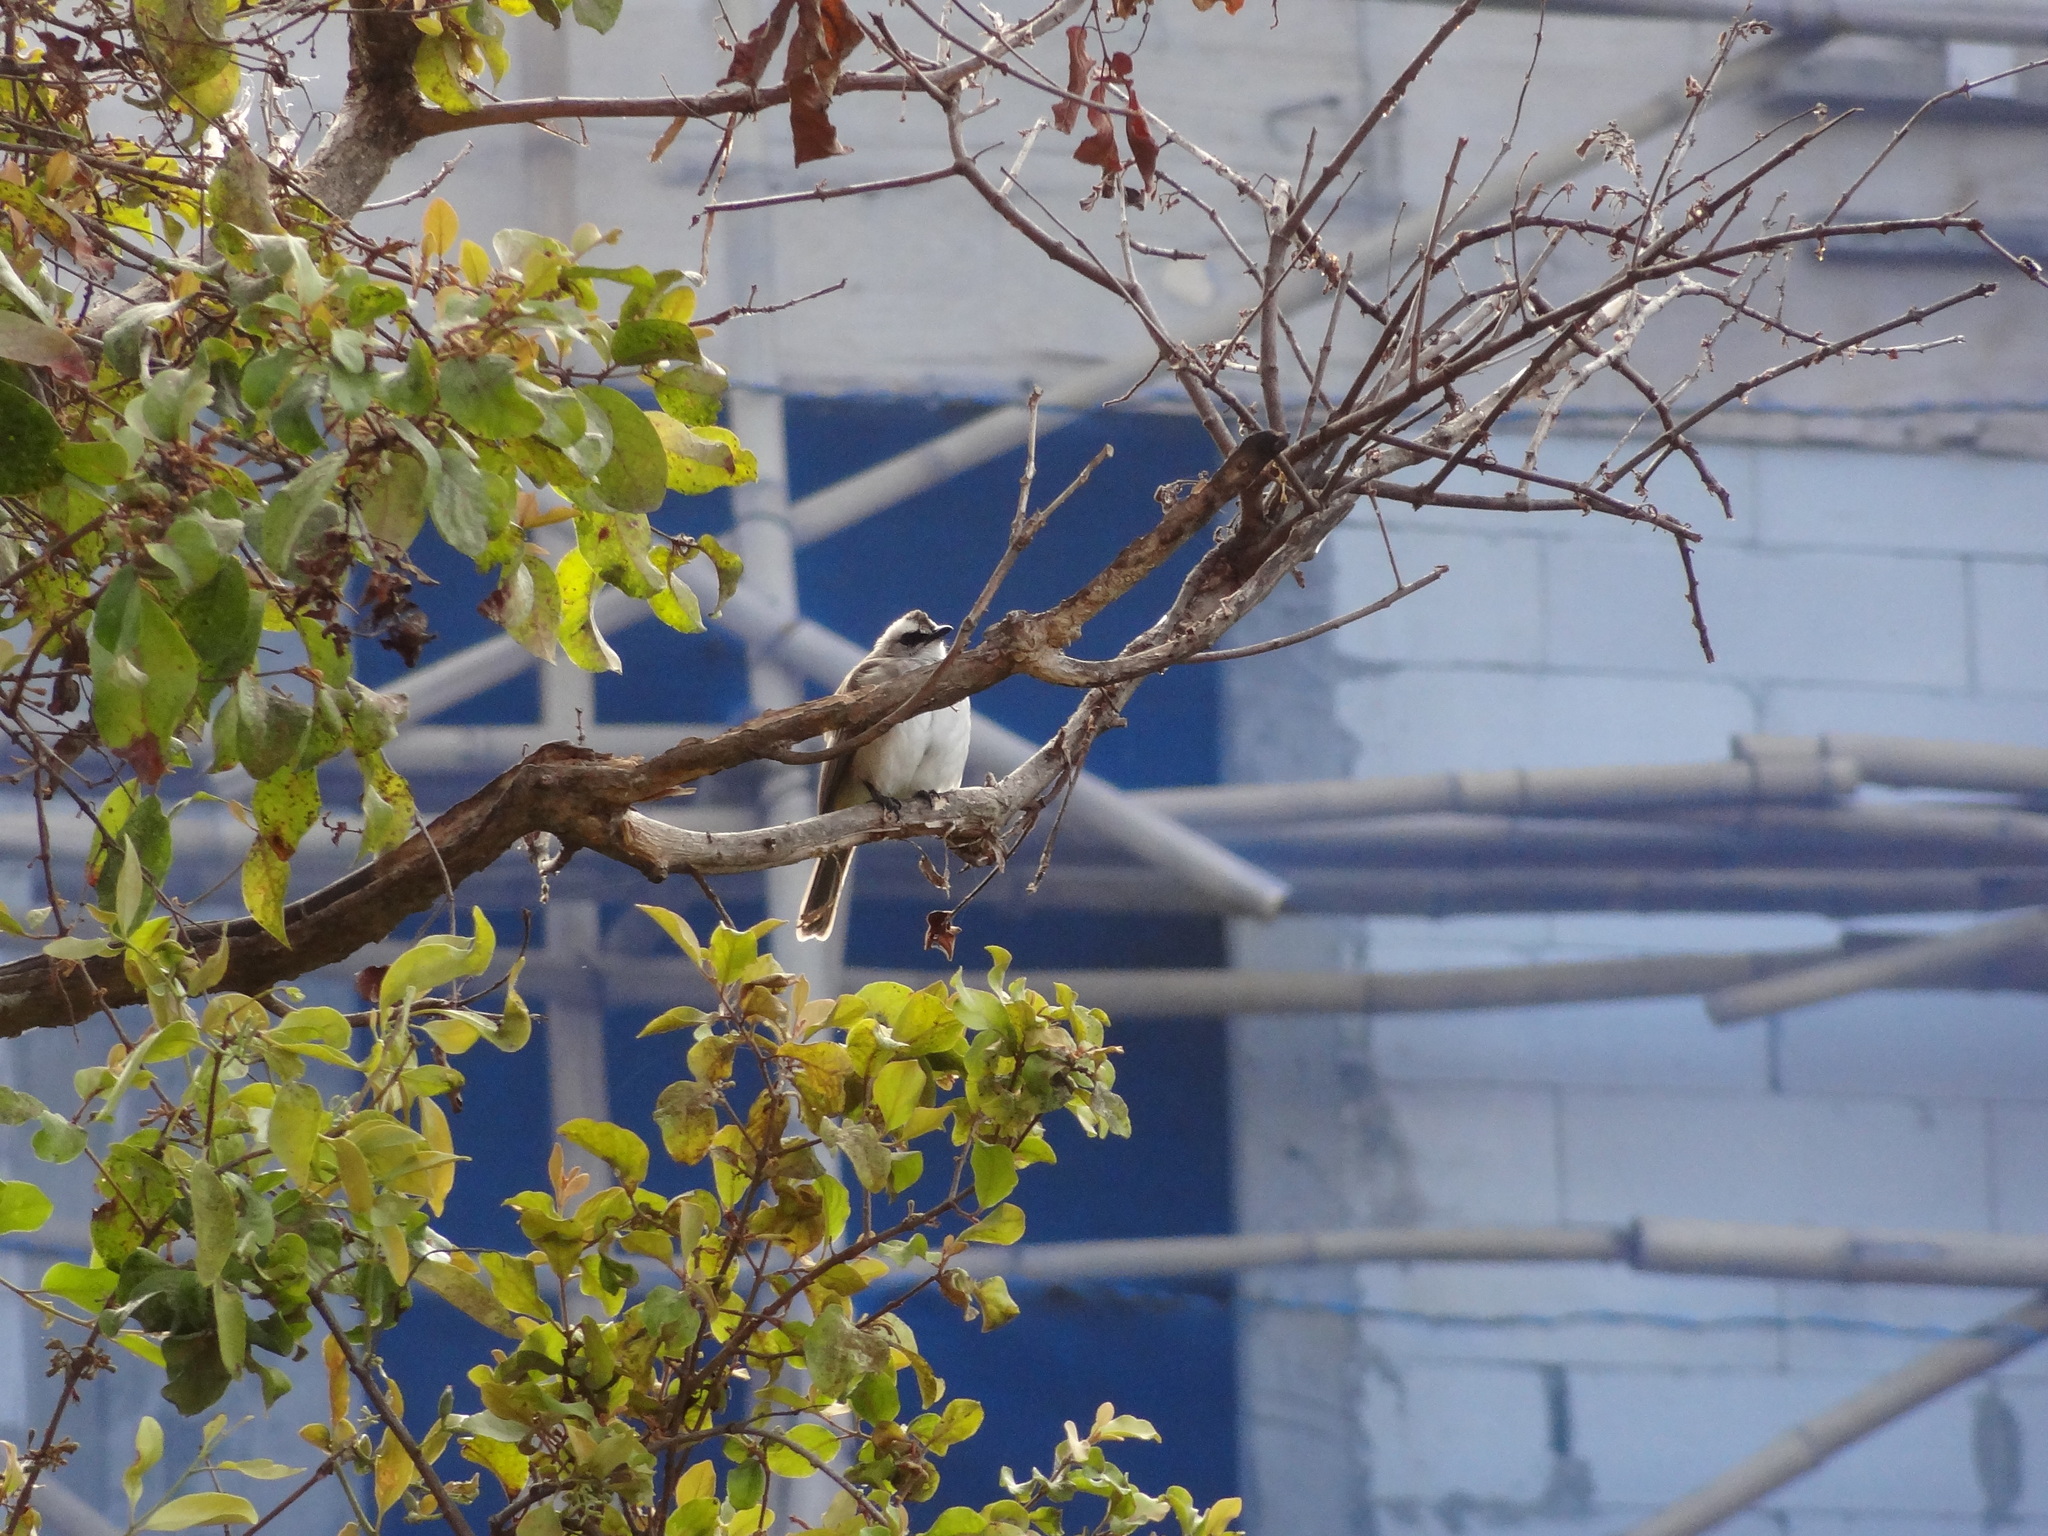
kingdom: Animalia
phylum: Chordata
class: Aves
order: Passeriformes
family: Pycnonotidae
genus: Pycnonotus
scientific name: Pycnonotus goiavier
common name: Yellow-vented bulbul
